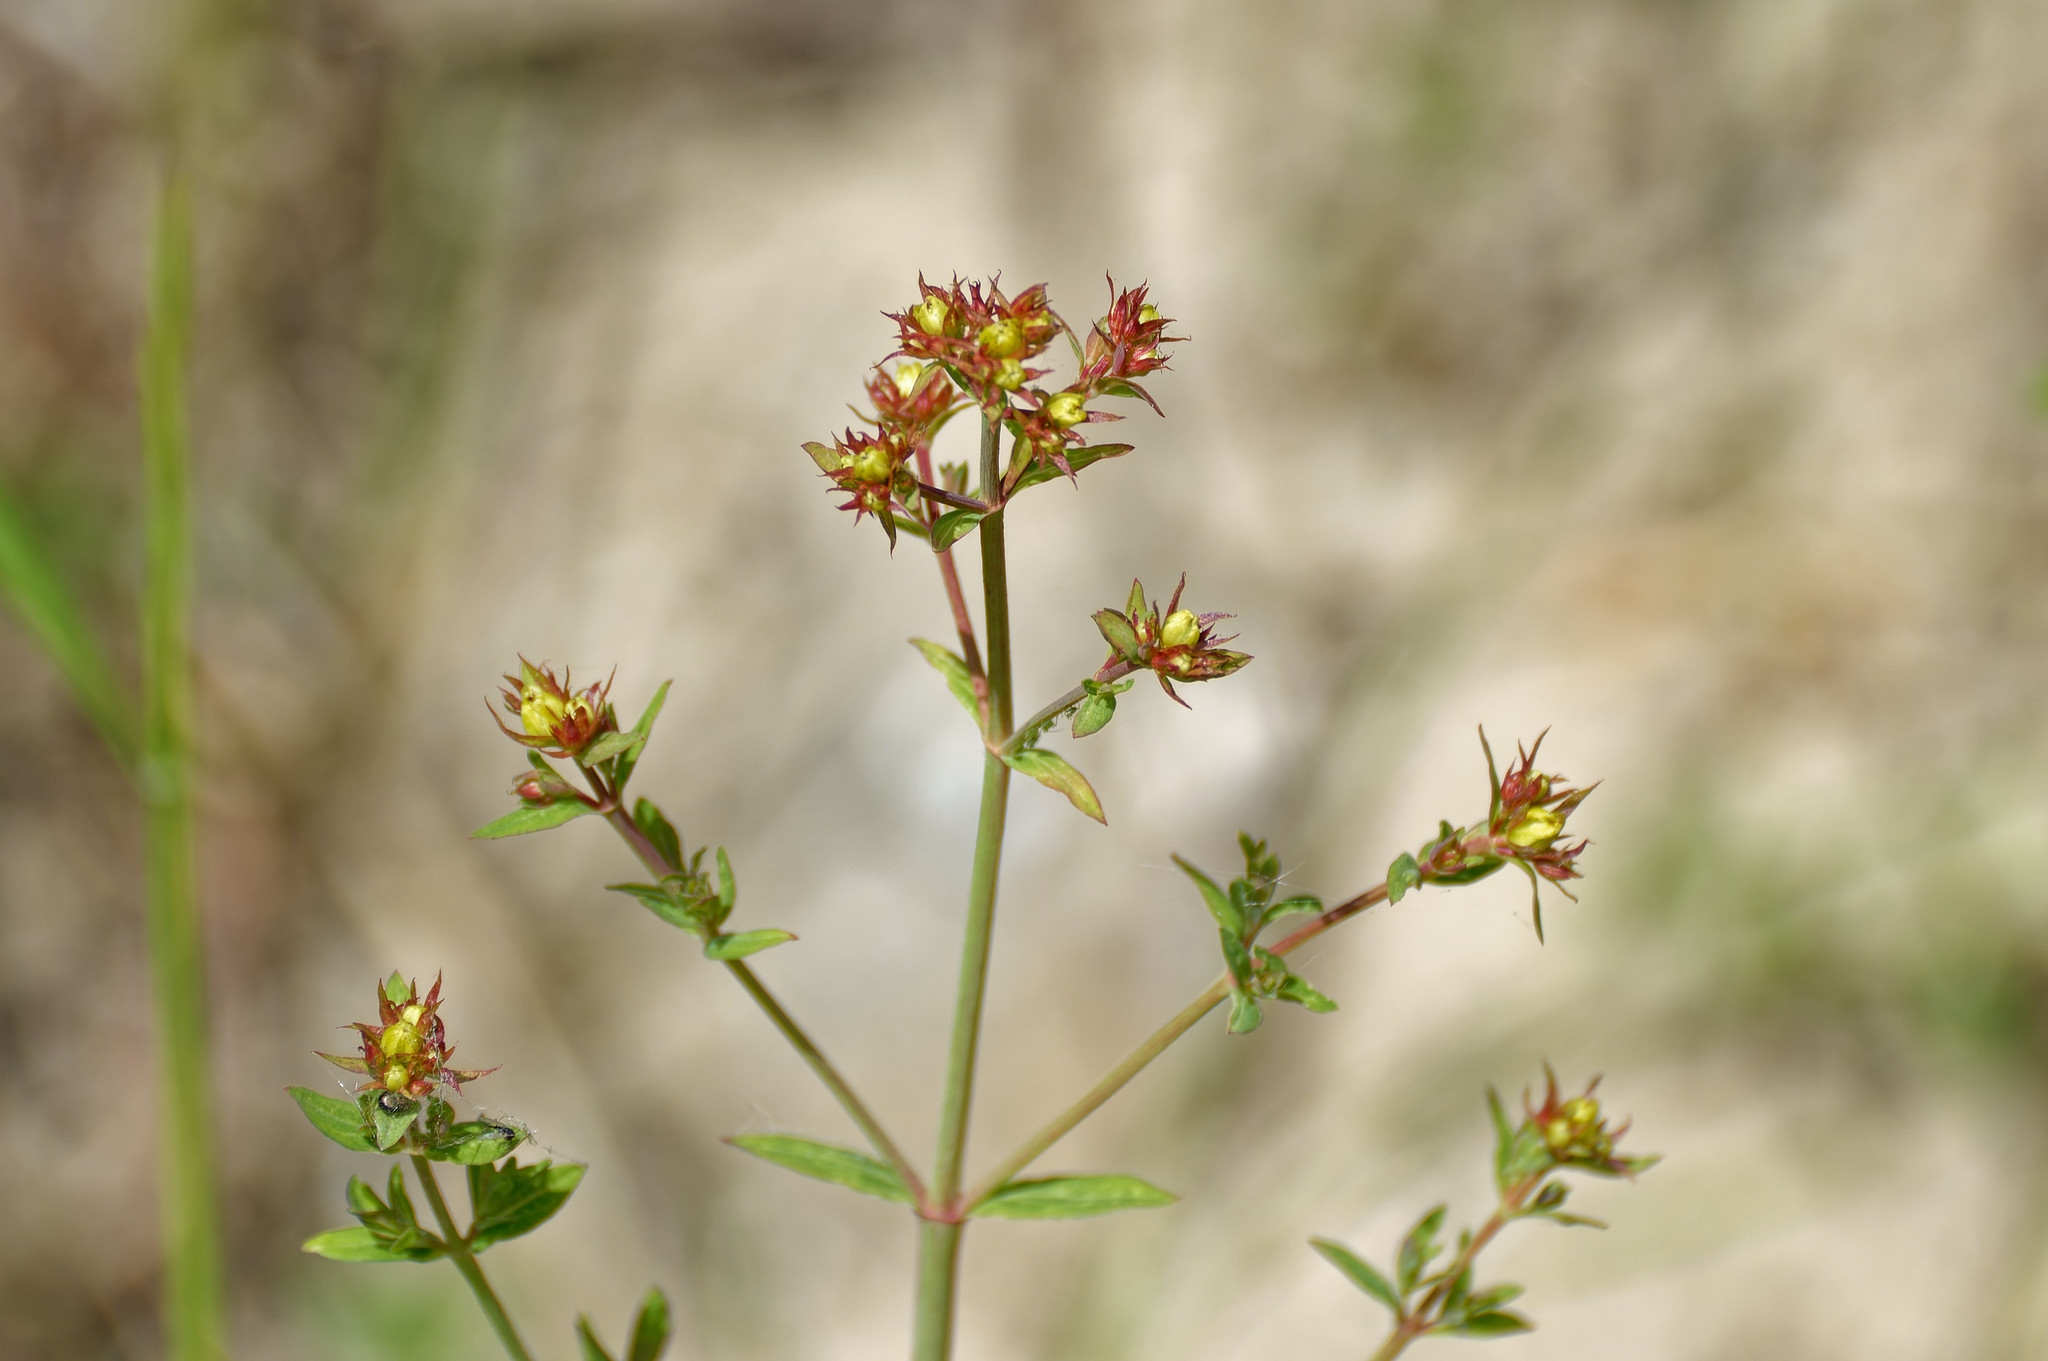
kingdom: Plantae
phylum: Tracheophyta
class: Magnoliopsida
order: Malpighiales
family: Hypericaceae
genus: Hypericum
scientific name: Hypericum perforatum
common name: Common st. johnswort
